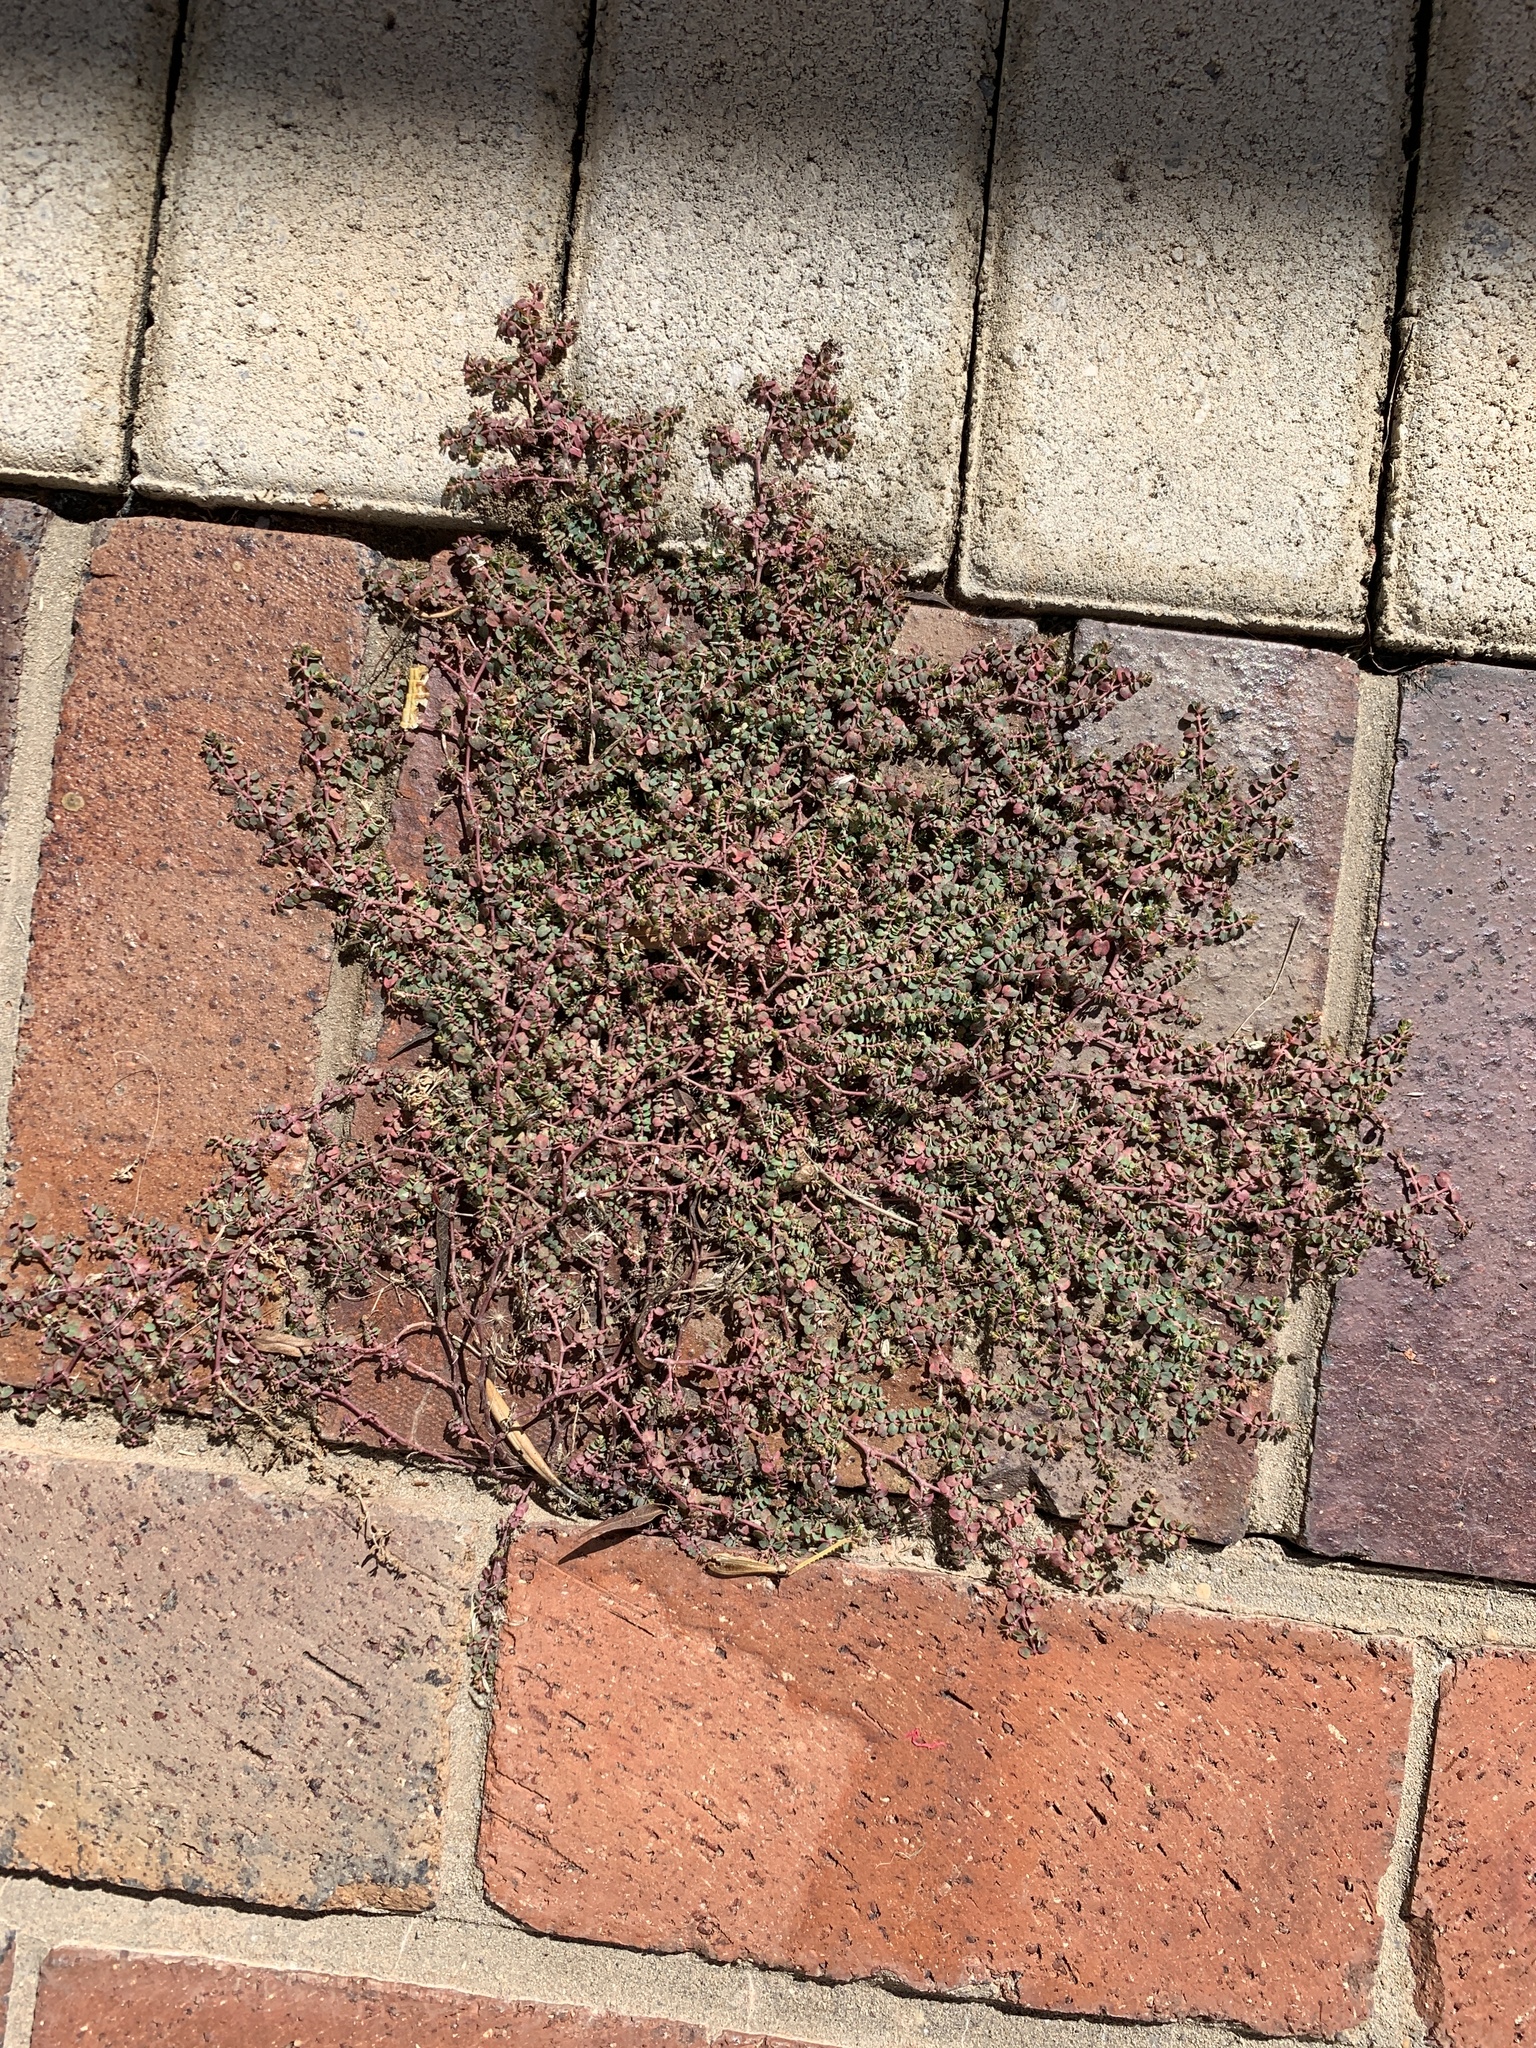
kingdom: Plantae
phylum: Tracheophyta
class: Magnoliopsida
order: Malpighiales
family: Euphorbiaceae
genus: Euphorbia
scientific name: Euphorbia serpens
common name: Matted sandmat
